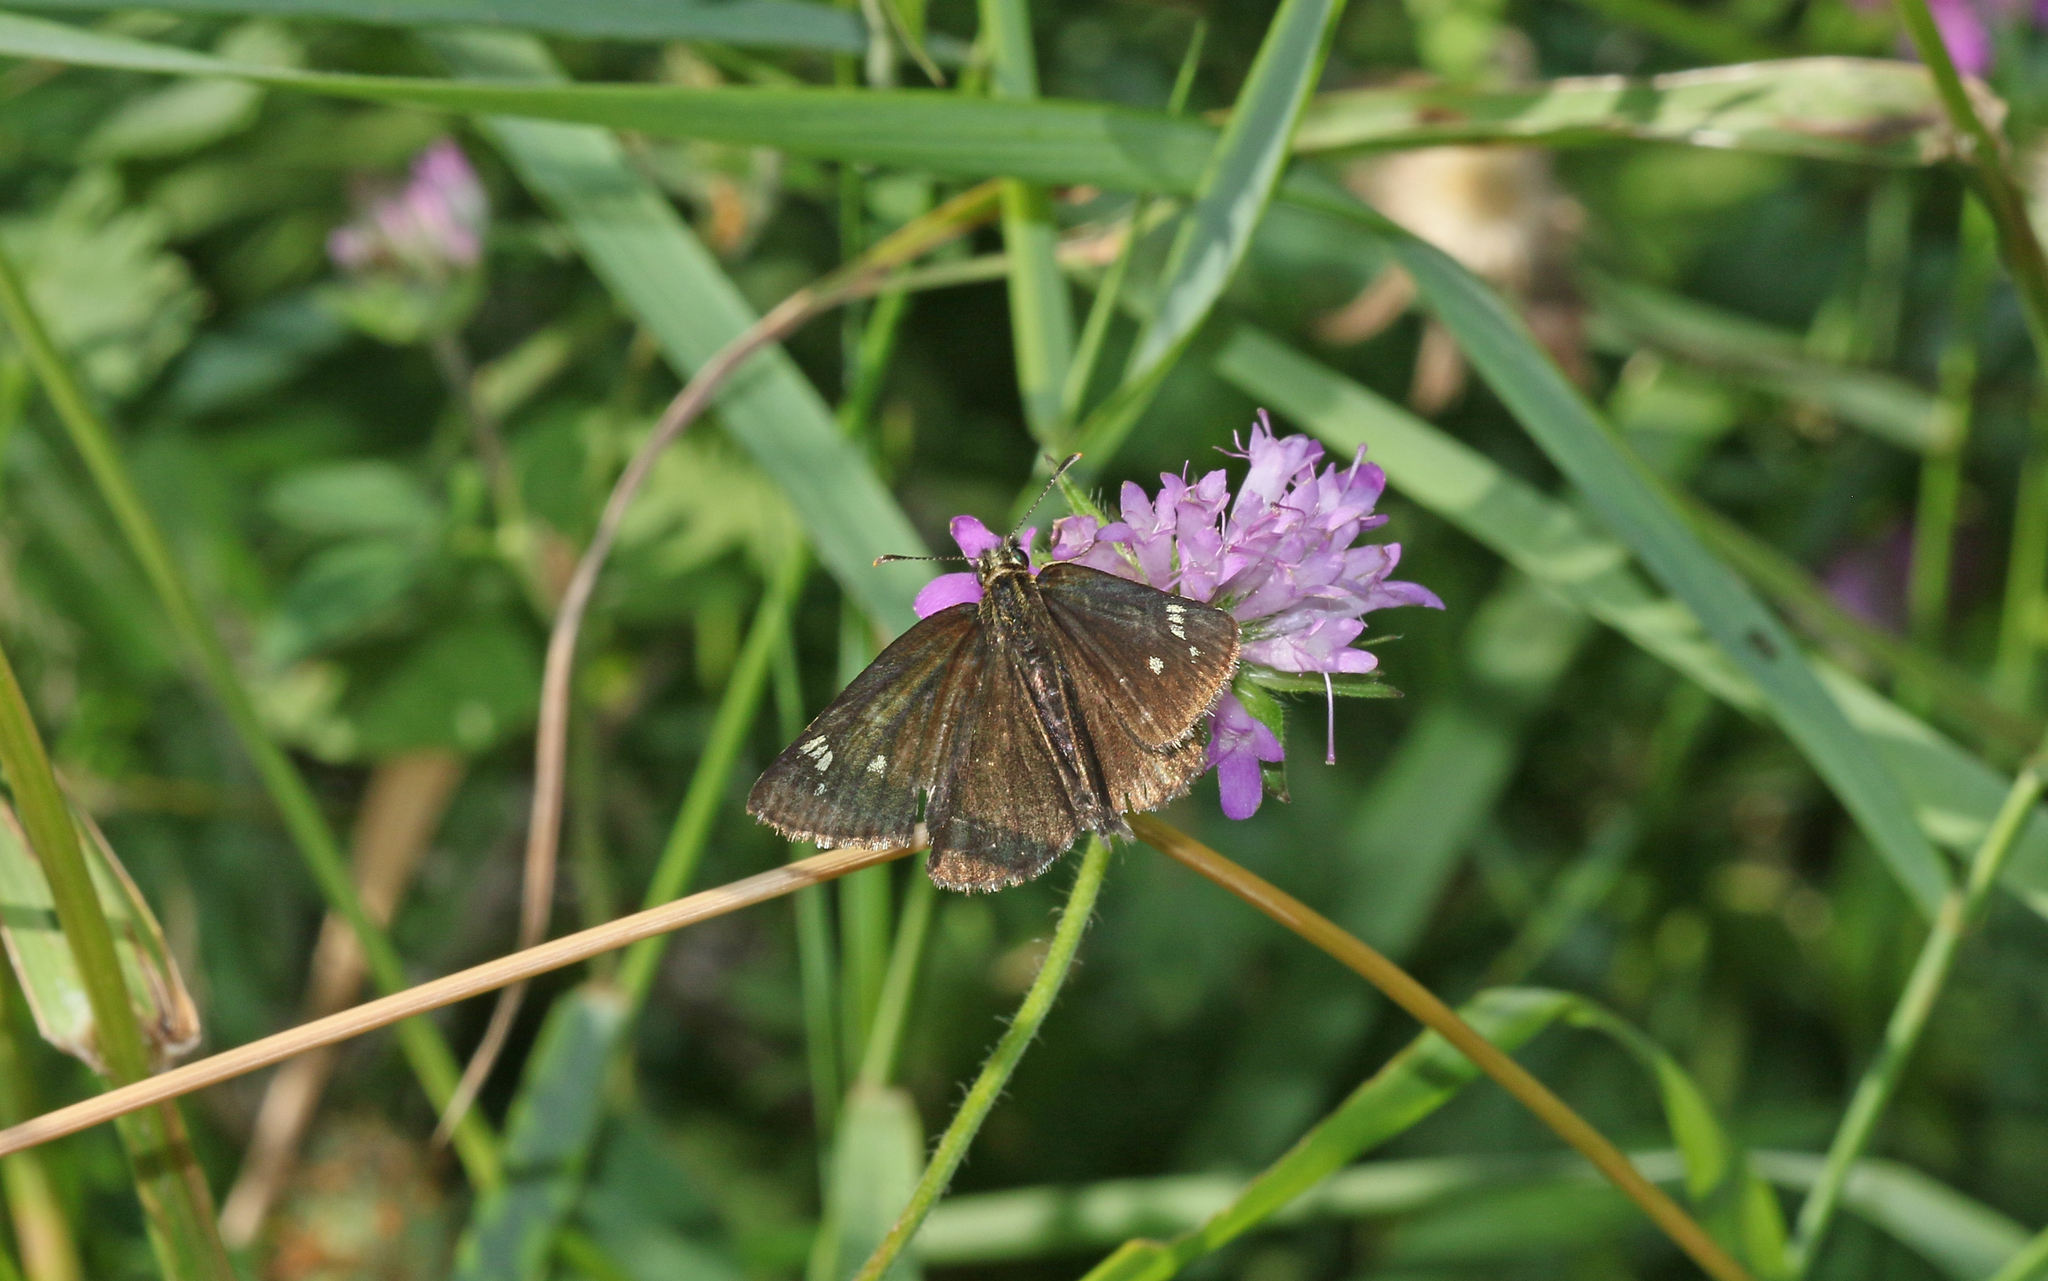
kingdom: Animalia
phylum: Arthropoda
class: Insecta
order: Lepidoptera
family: Hesperiidae
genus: Heteropterus
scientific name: Heteropterus morpheus
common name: Large chequered skipper
